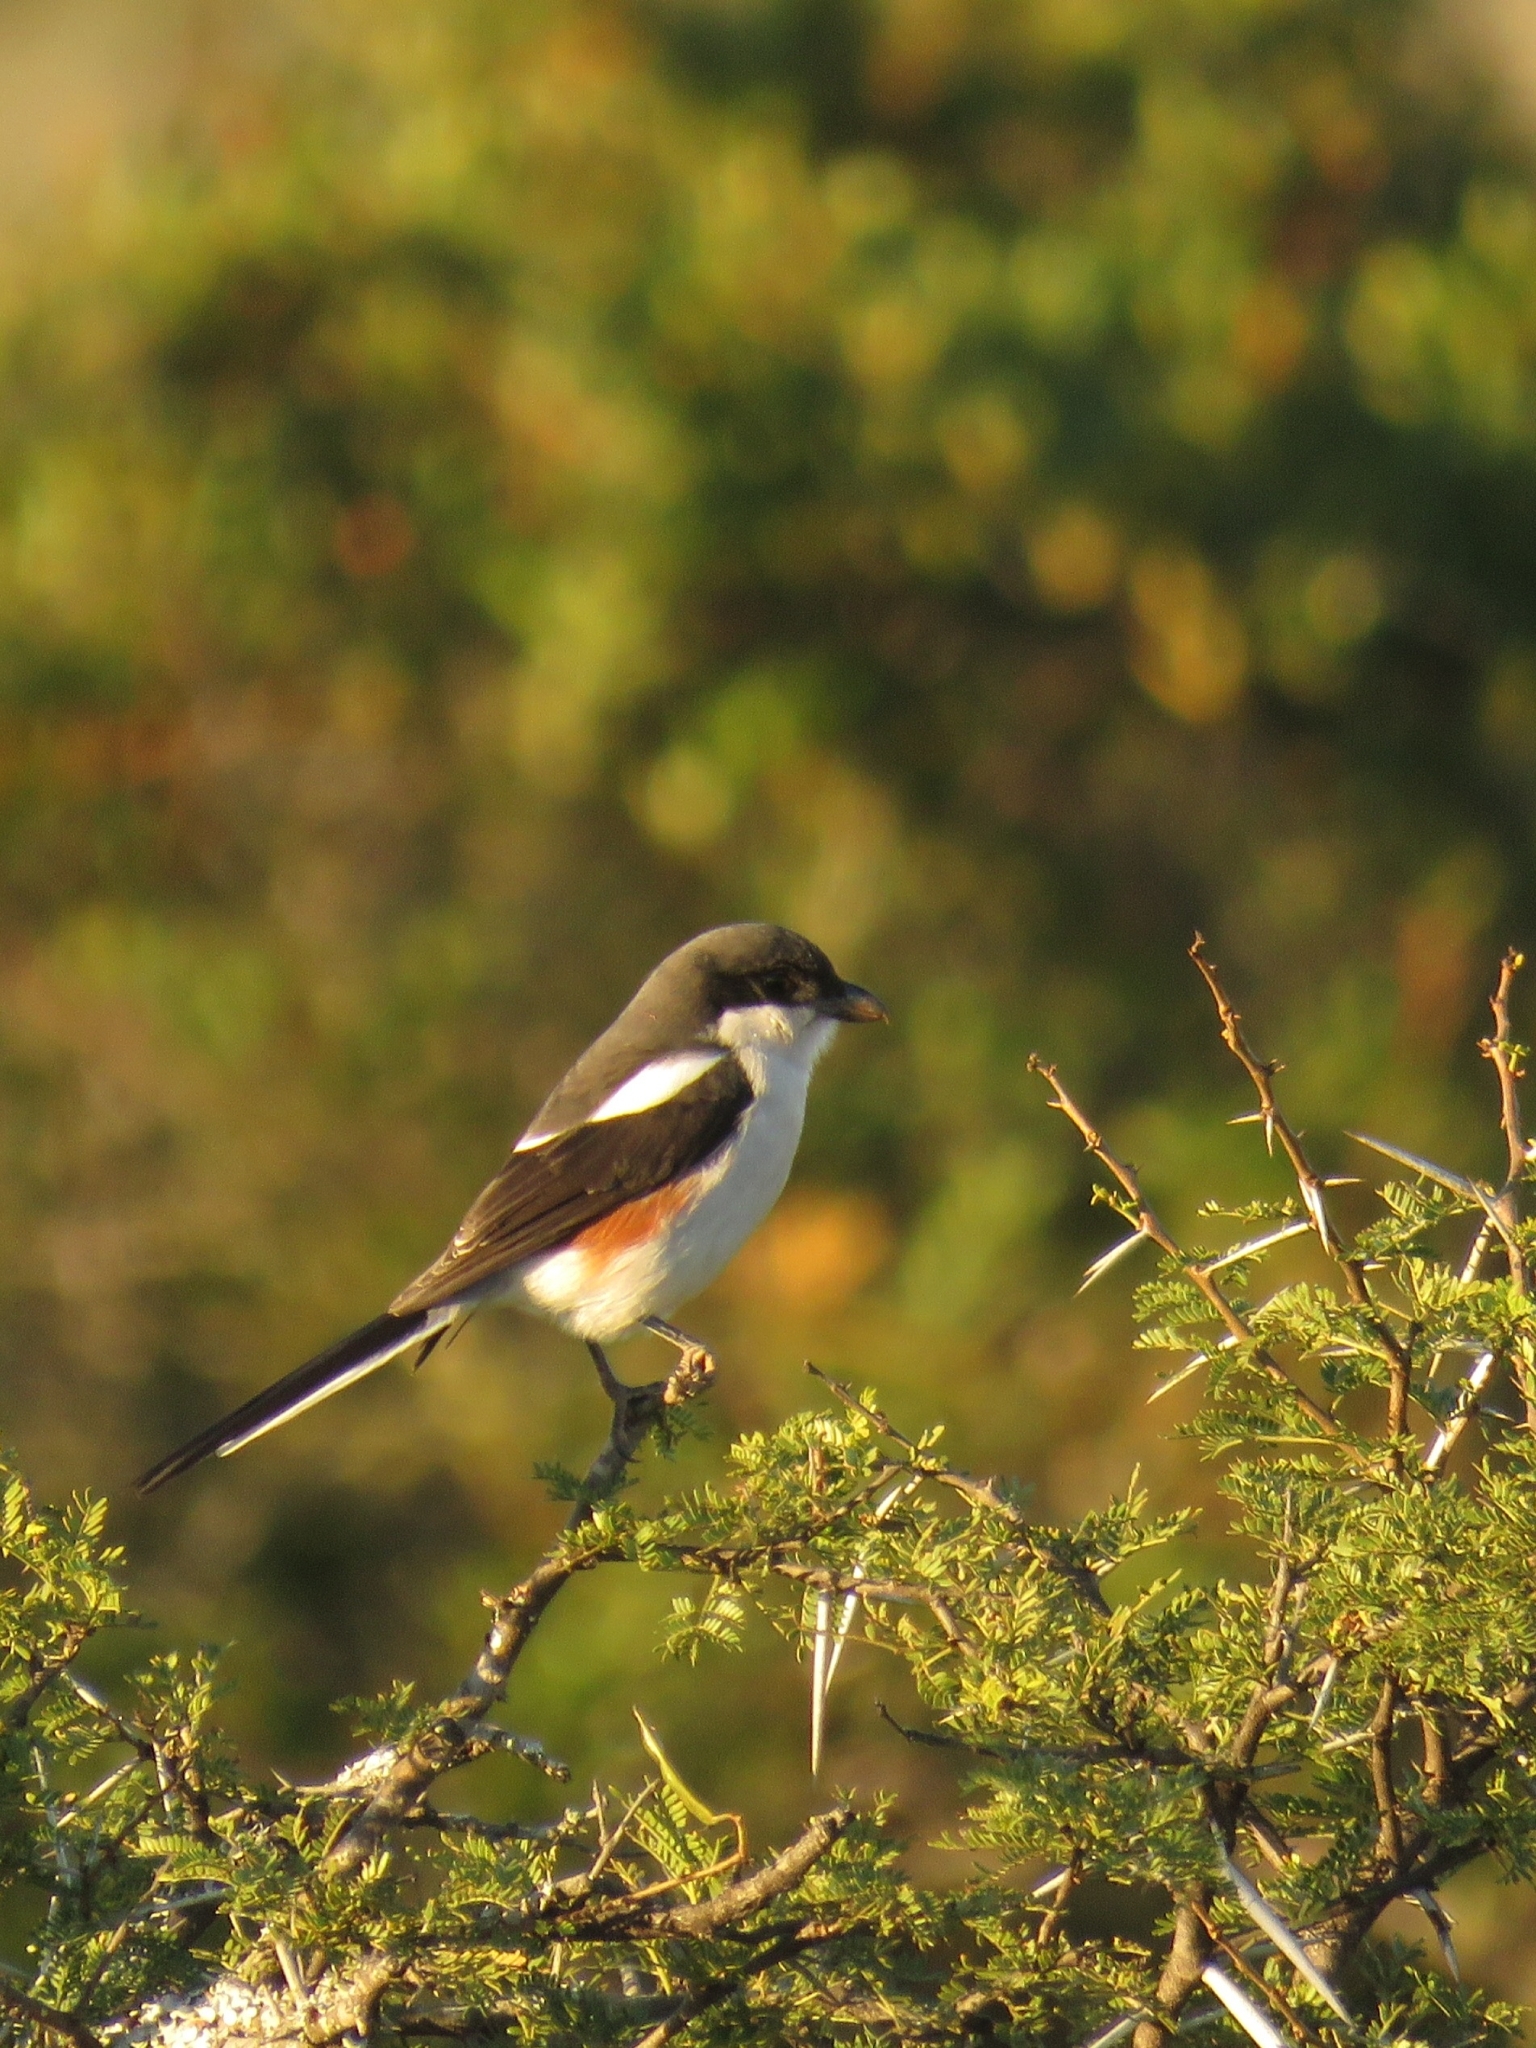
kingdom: Animalia
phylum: Chordata
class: Aves
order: Passeriformes
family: Laniidae
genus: Lanius
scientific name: Lanius collaris
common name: Southern fiscal
